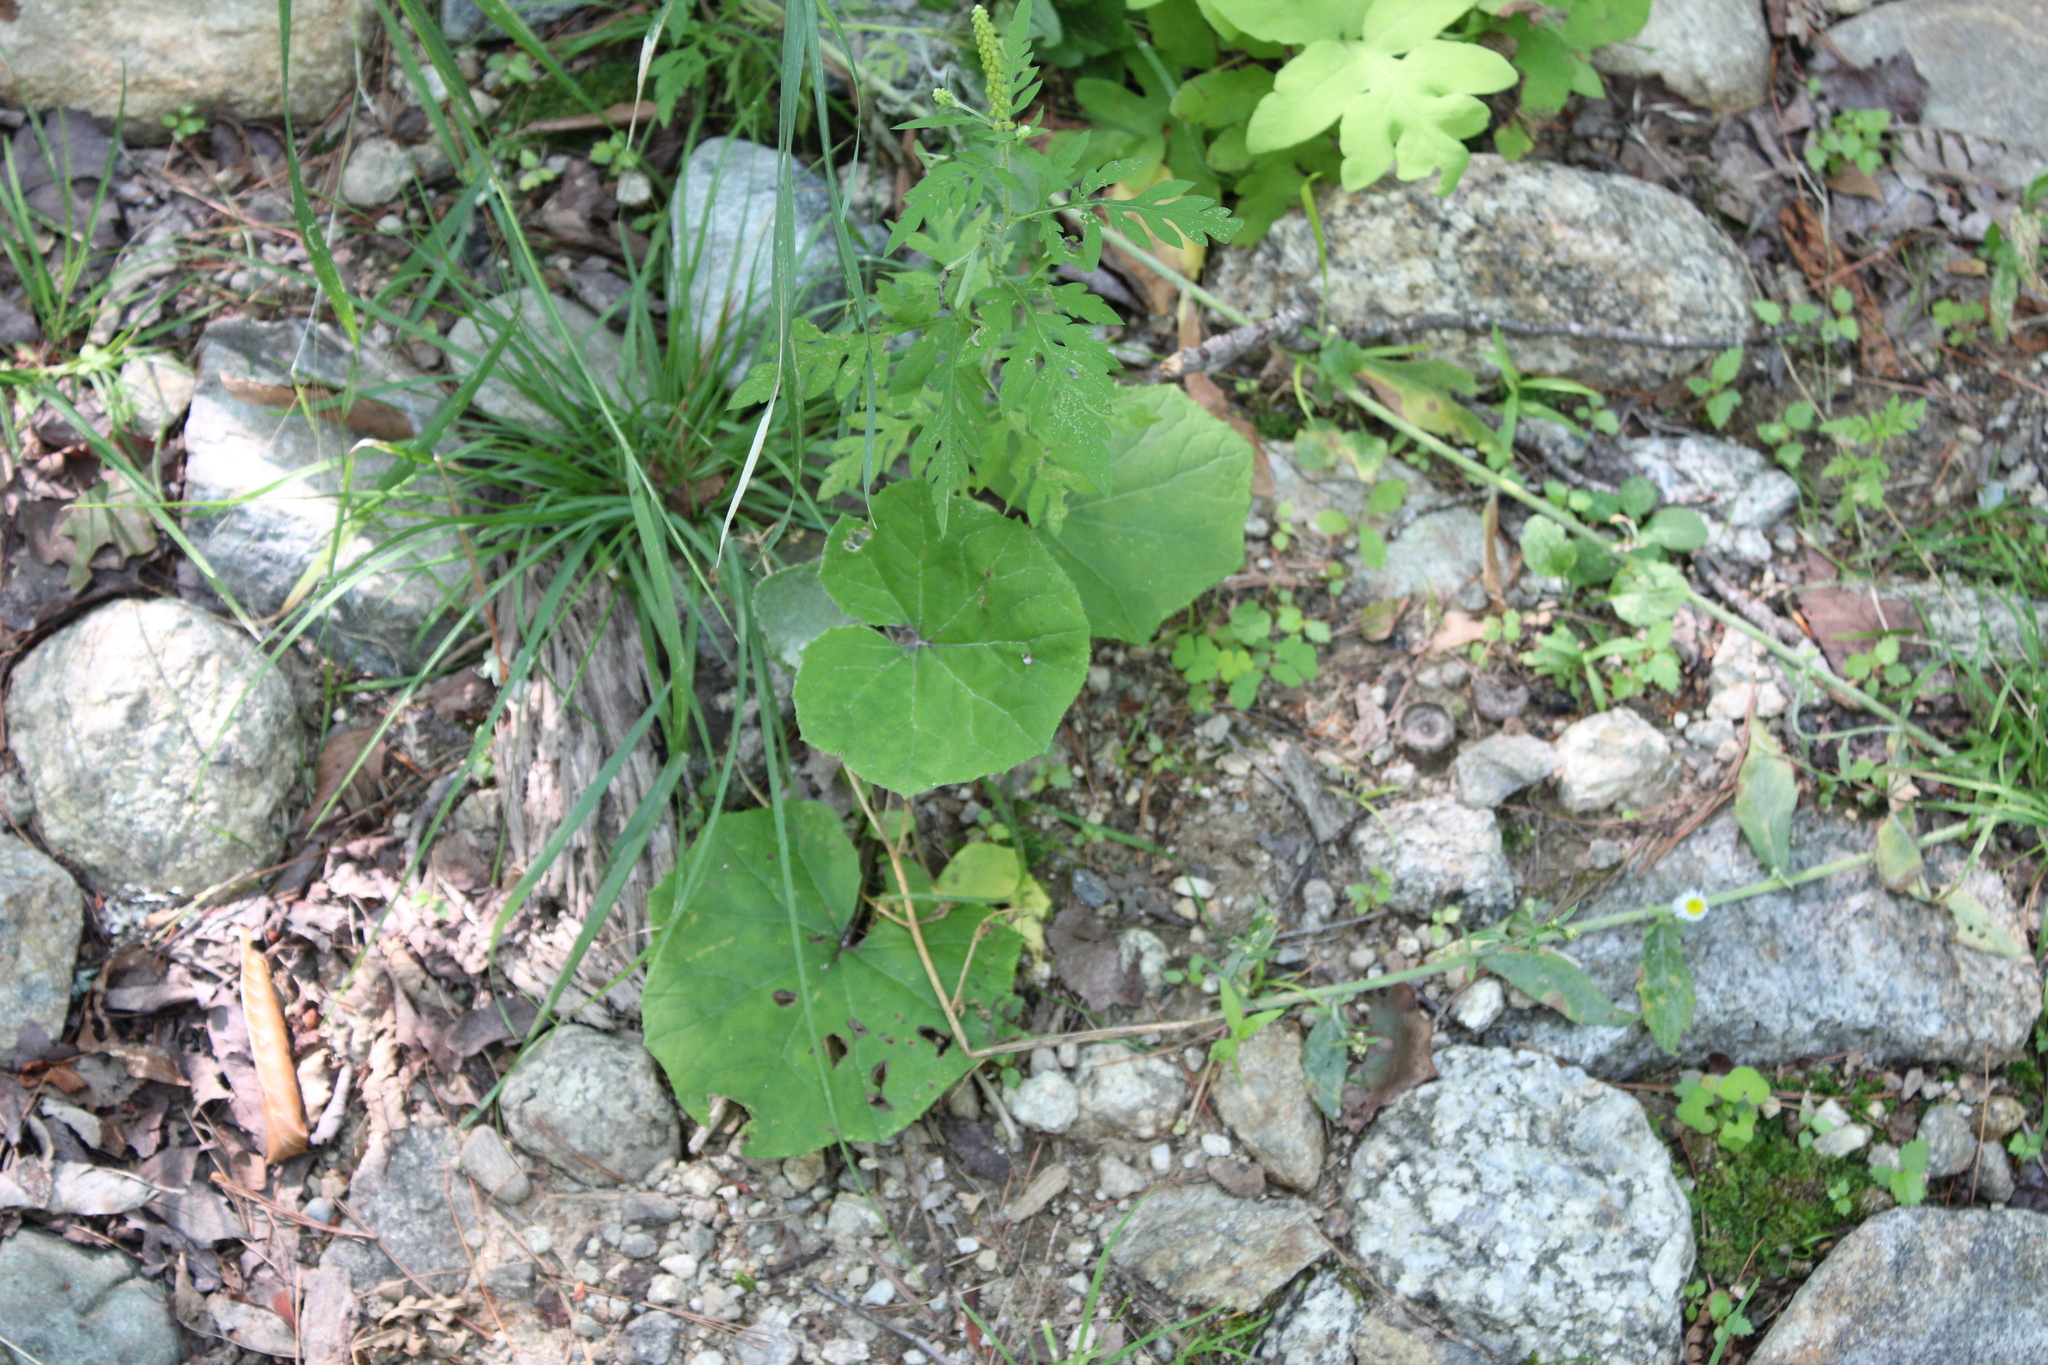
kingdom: Plantae
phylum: Tracheophyta
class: Magnoliopsida
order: Asterales
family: Asteraceae
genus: Tussilago
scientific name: Tussilago farfara
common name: Coltsfoot
